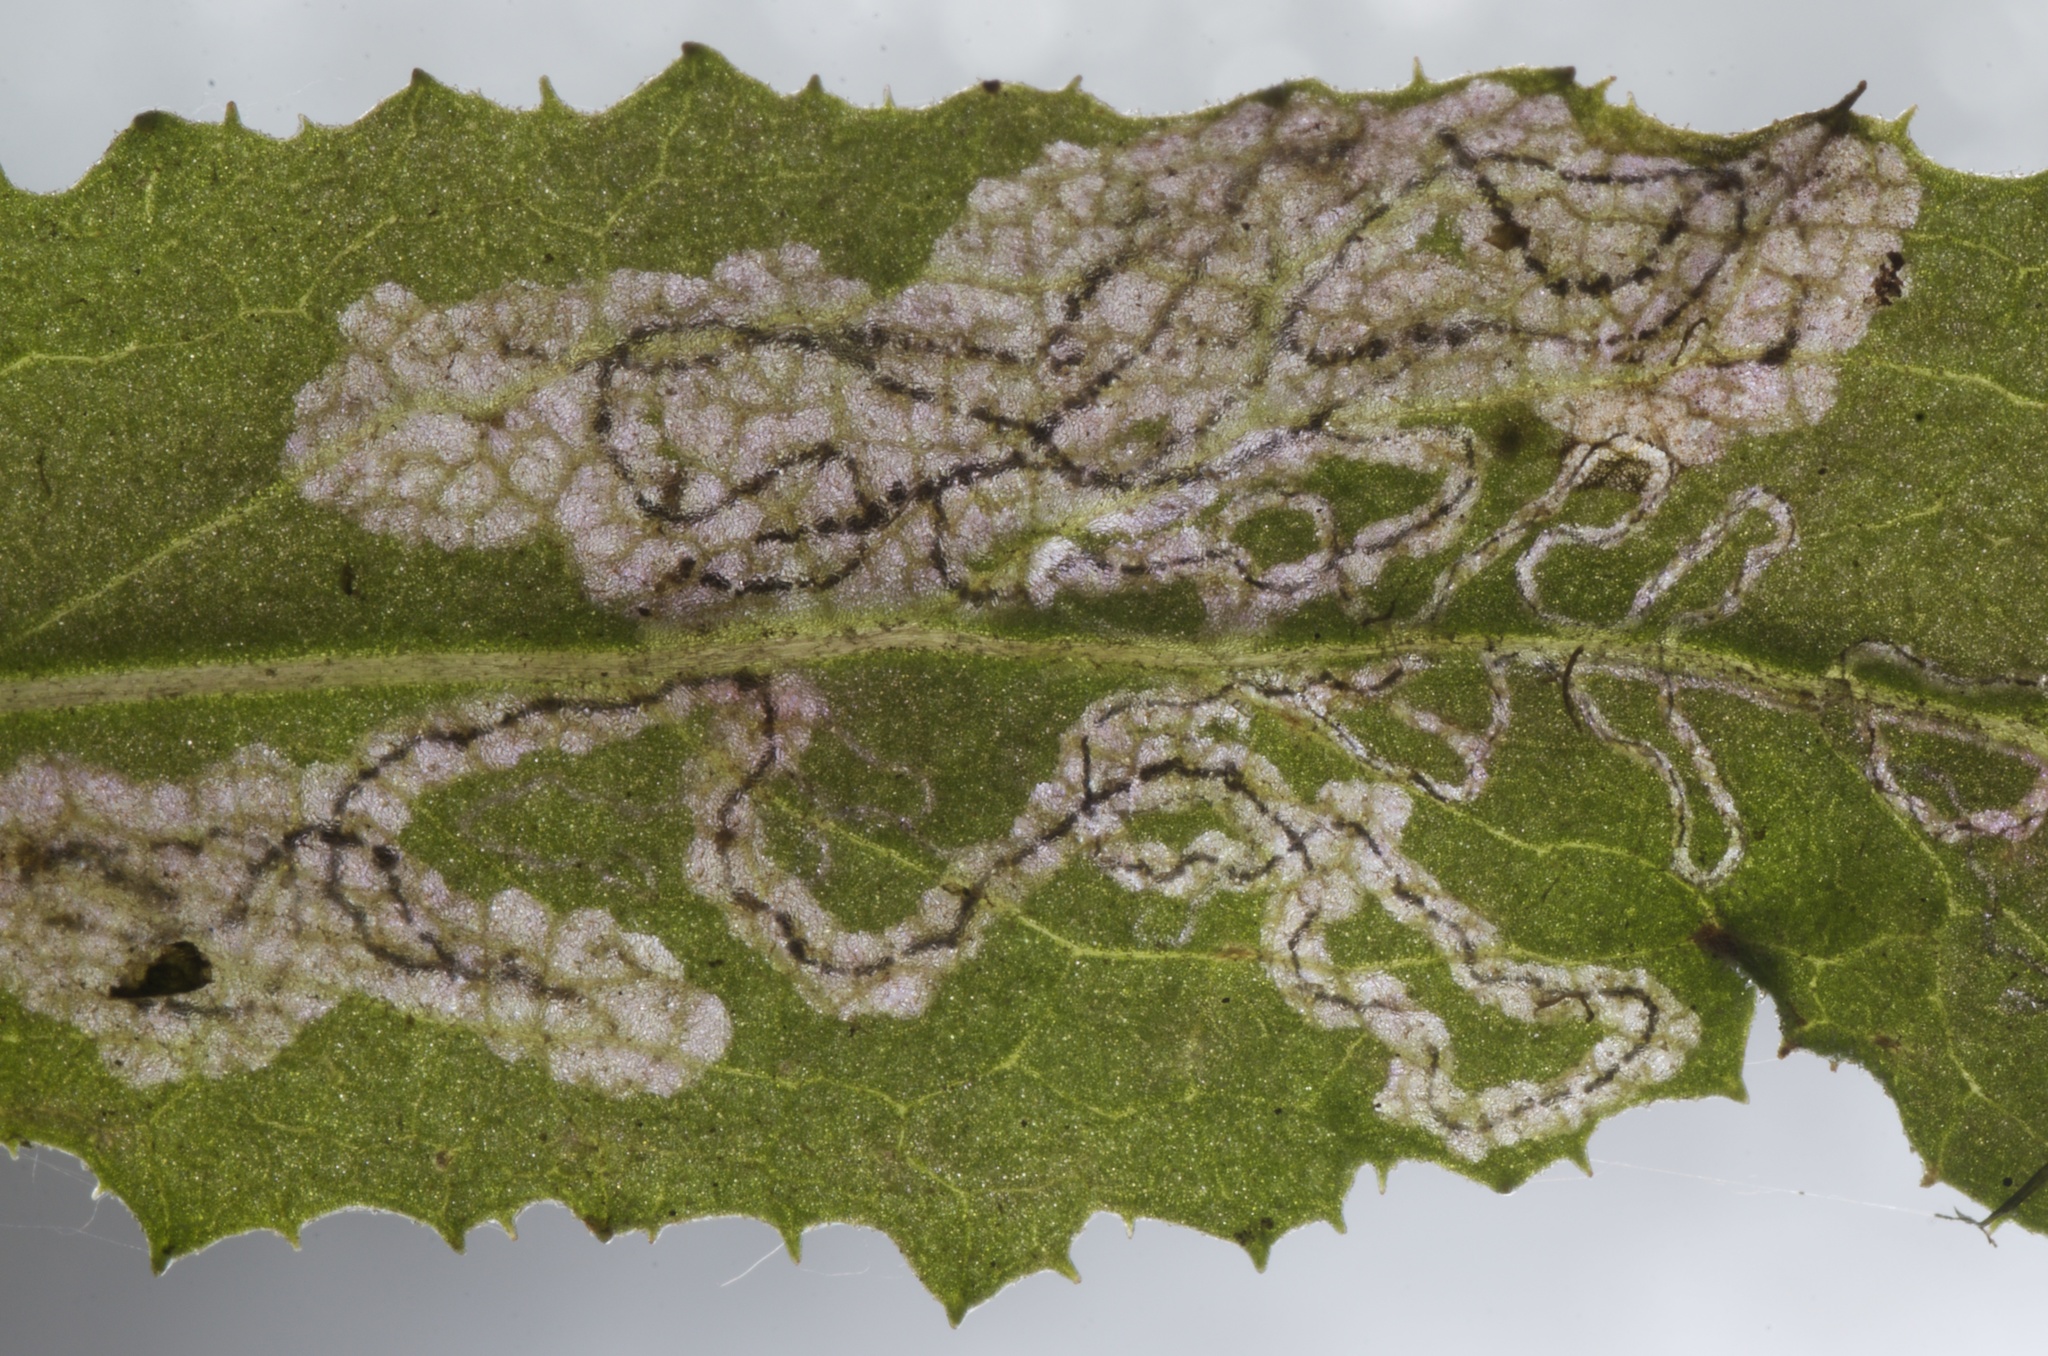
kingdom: Animalia
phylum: Arthropoda
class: Insecta
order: Lepidoptera
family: Nepticulidae
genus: Stigmella
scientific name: Stigmella ogygia
